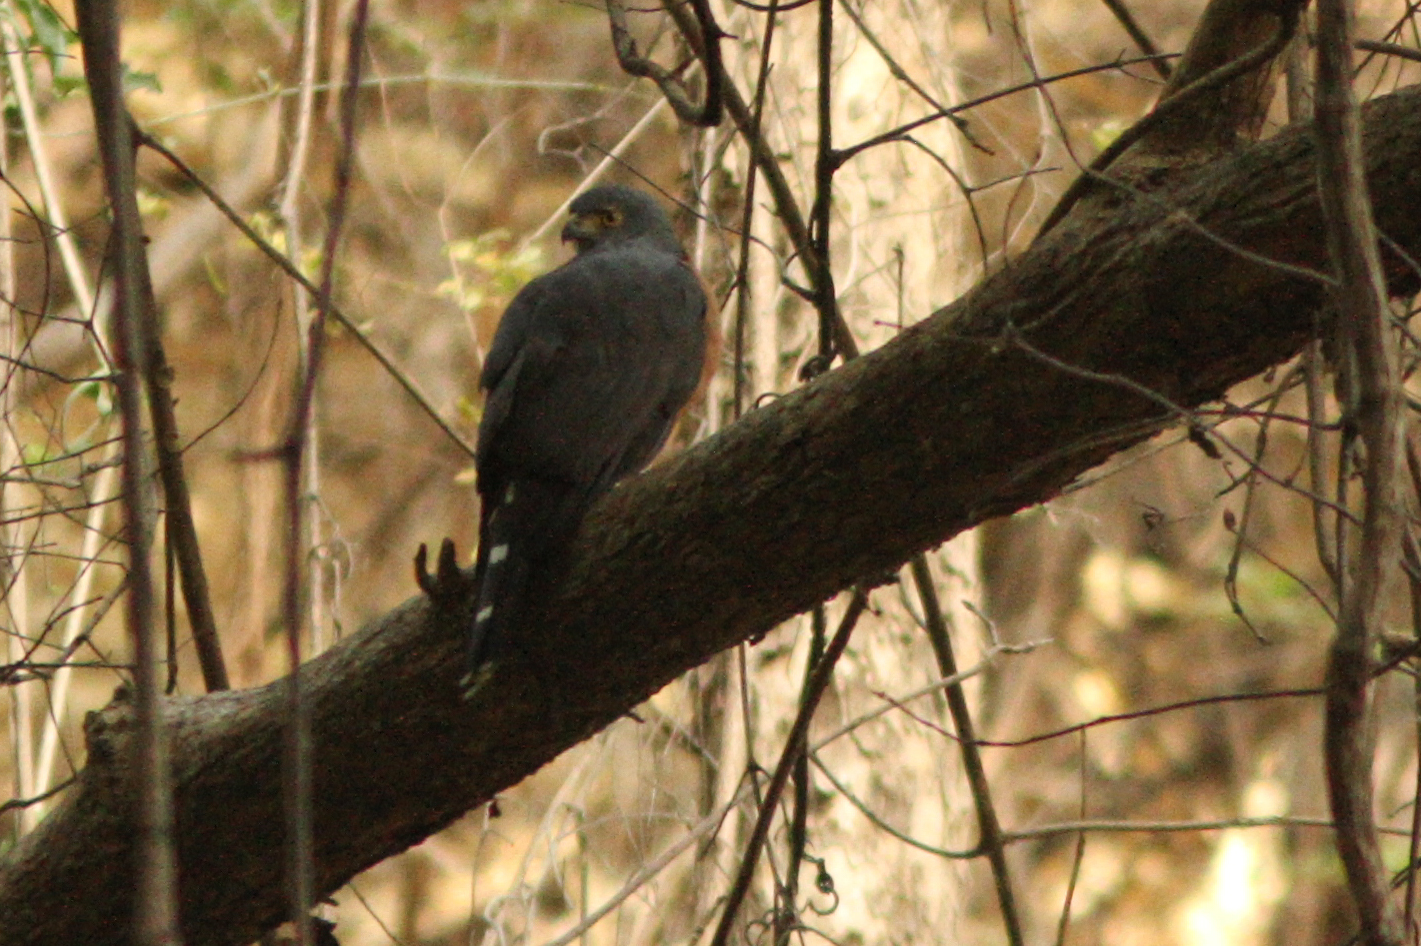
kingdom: Animalia
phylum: Chordata
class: Aves
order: Accipitriformes
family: Accipitridae
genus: Accipiter
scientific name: Accipiter tachiro
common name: African goshawk
